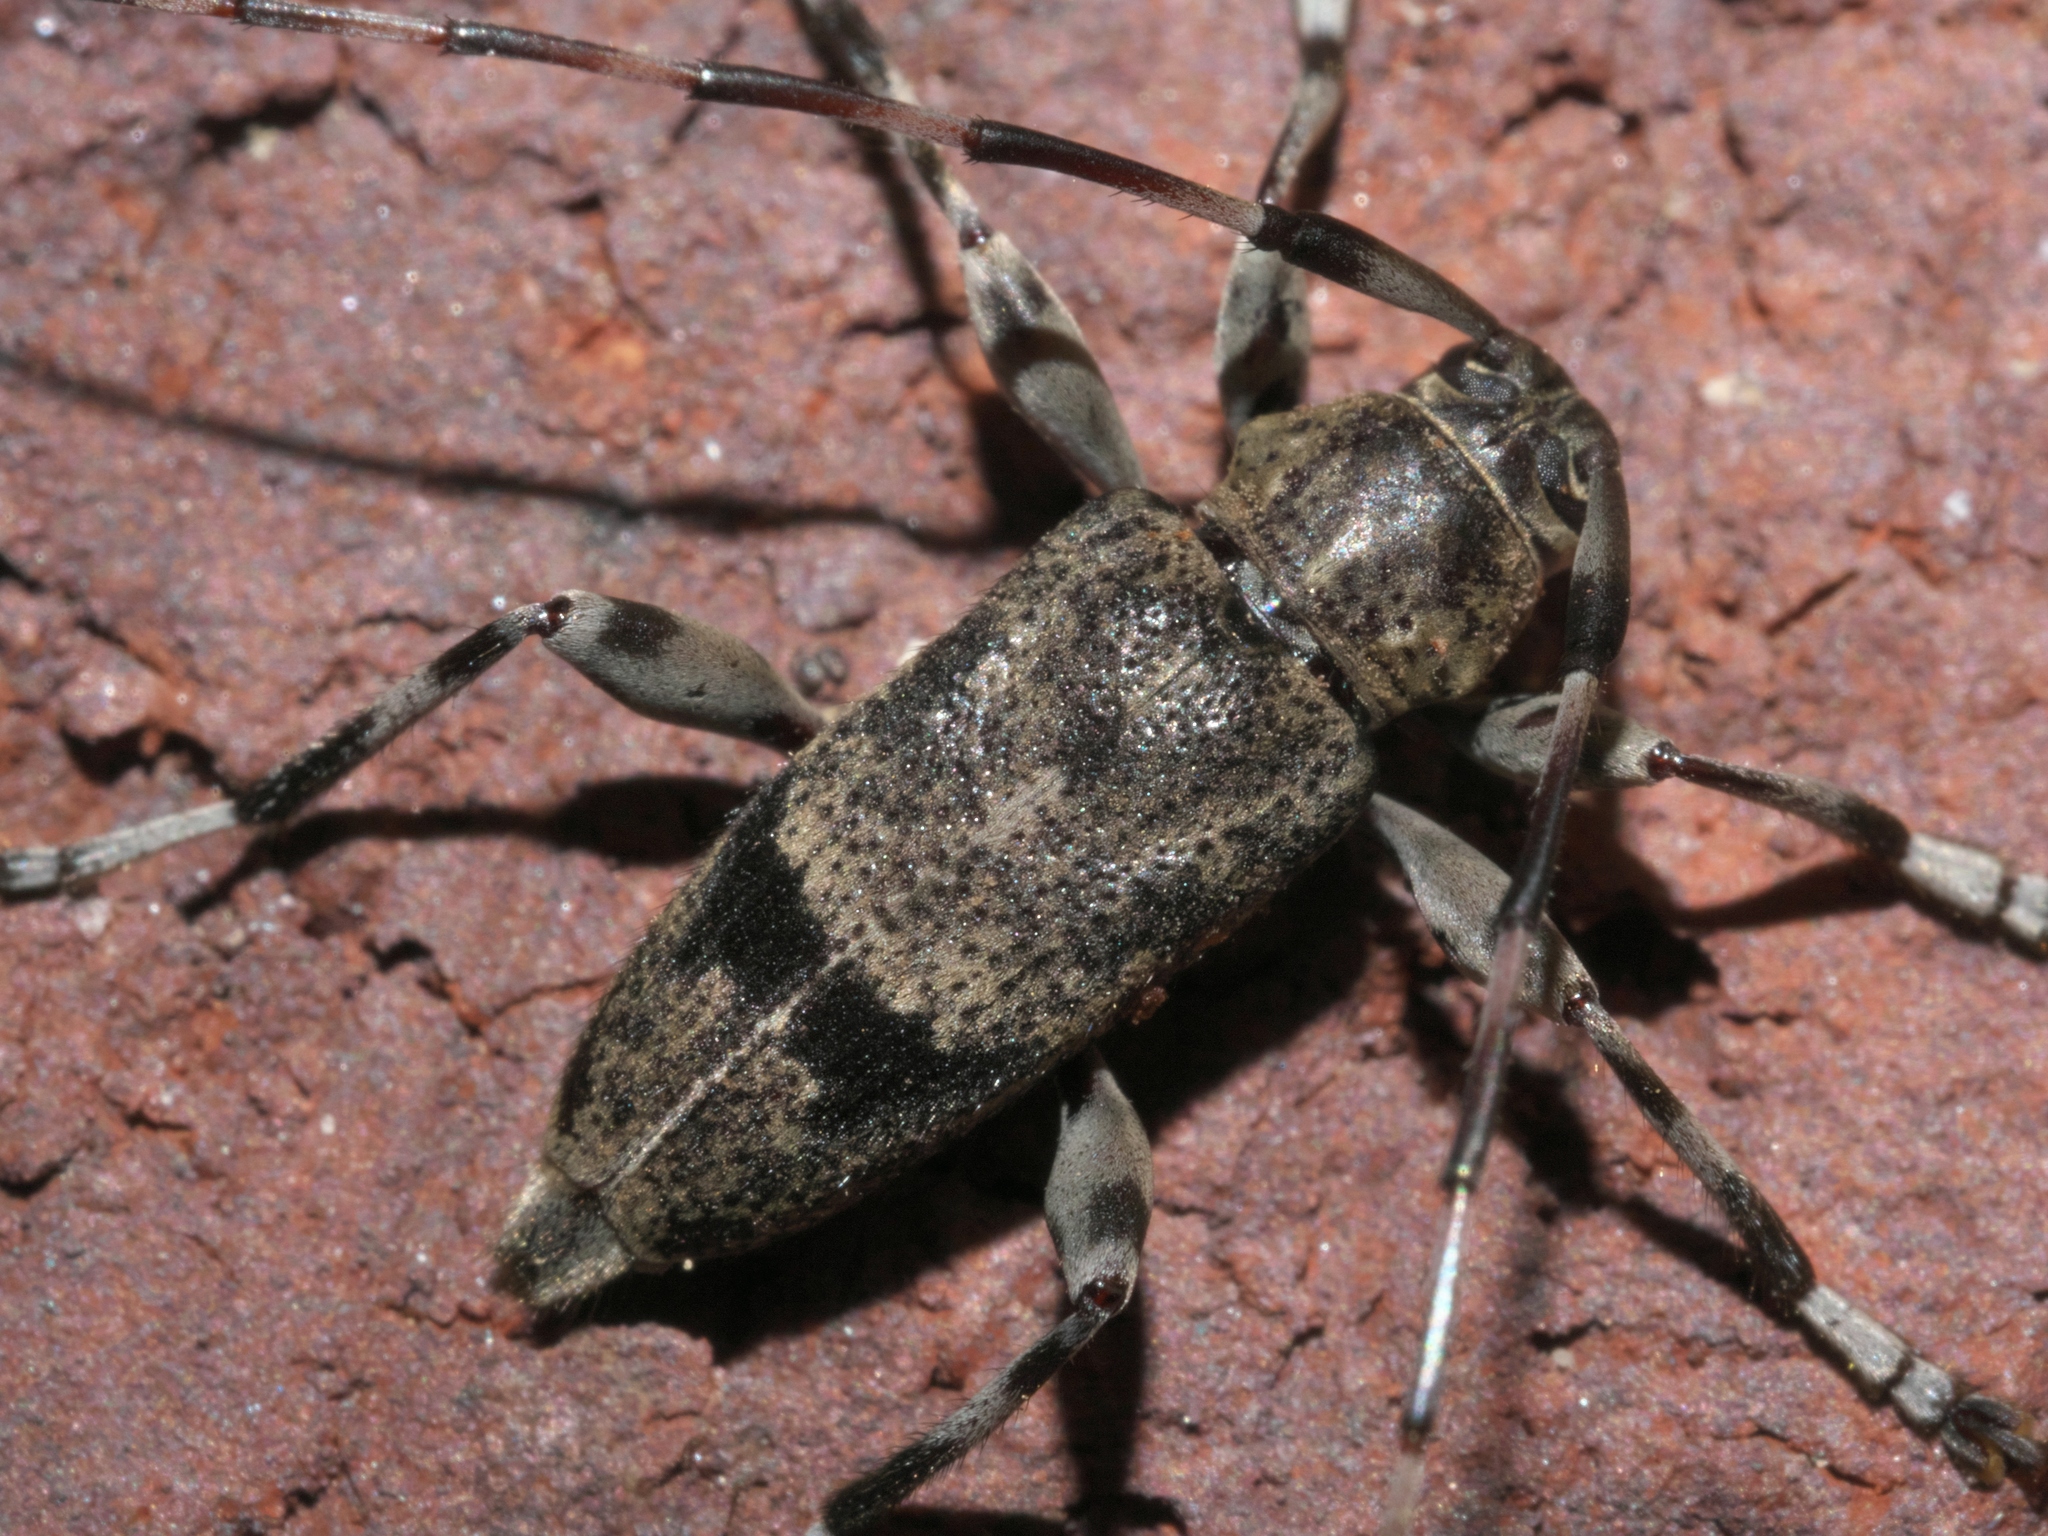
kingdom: Animalia
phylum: Arthropoda
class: Insecta
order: Coleoptera
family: Cerambycidae
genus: Graphisurus
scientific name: Graphisurus fasciatus
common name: Banded graphisurus
